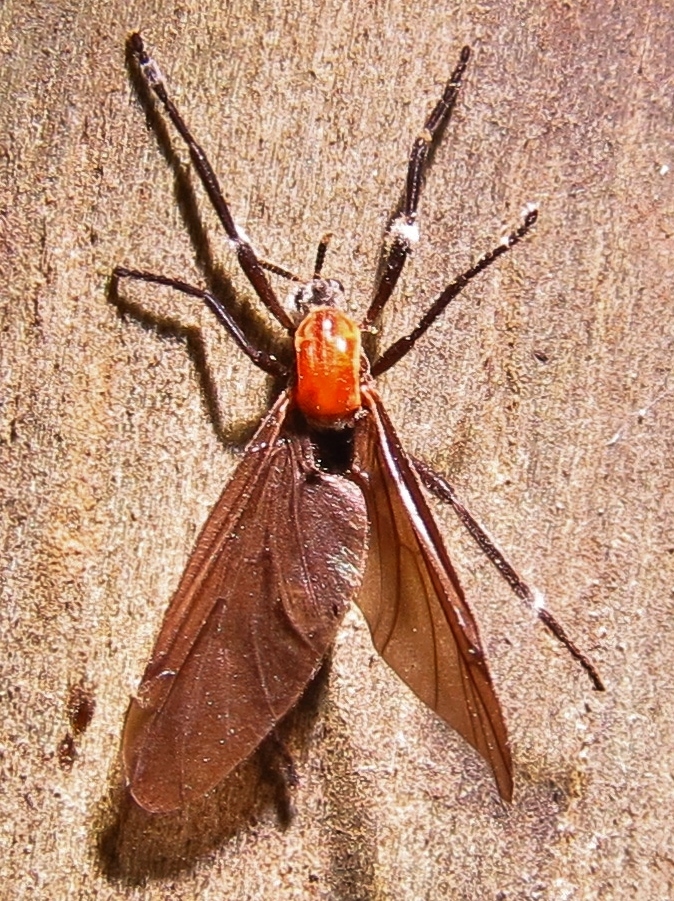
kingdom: Animalia
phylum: Arthropoda
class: Insecta
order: Diptera
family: Bibionidae
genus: Plecia
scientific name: Plecia nearctica
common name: March fly
